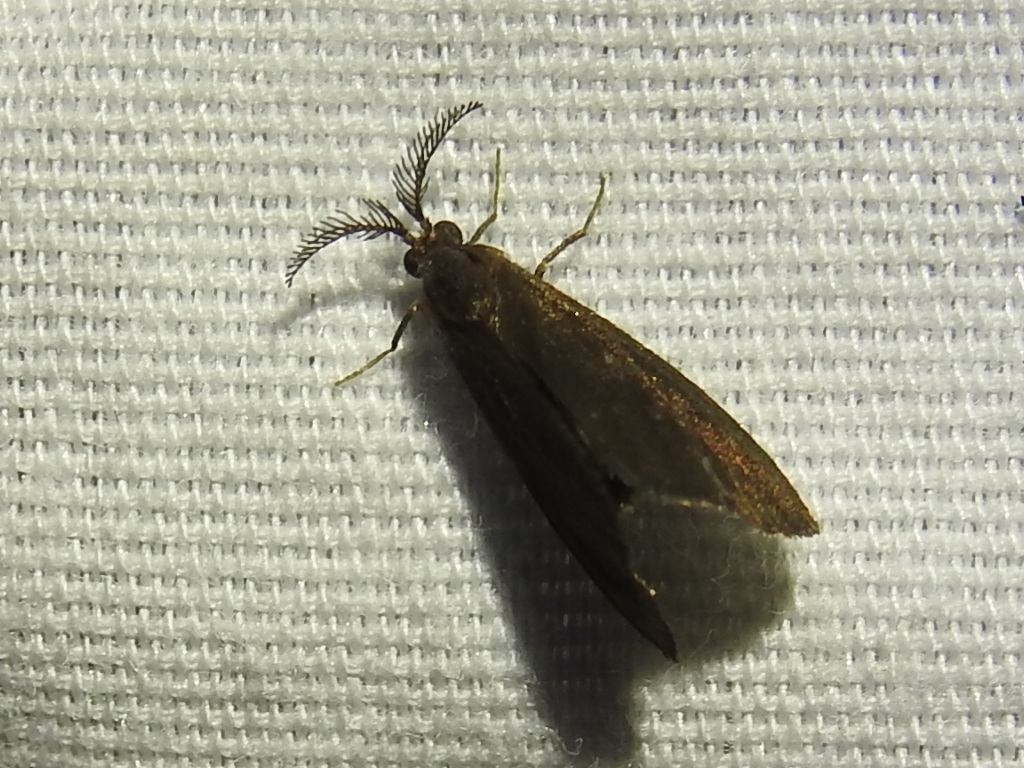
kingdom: Animalia
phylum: Arthropoda
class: Insecta
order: Lepidoptera
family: Psychidae
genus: Cryptothelea
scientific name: Cryptothelea gloverii
